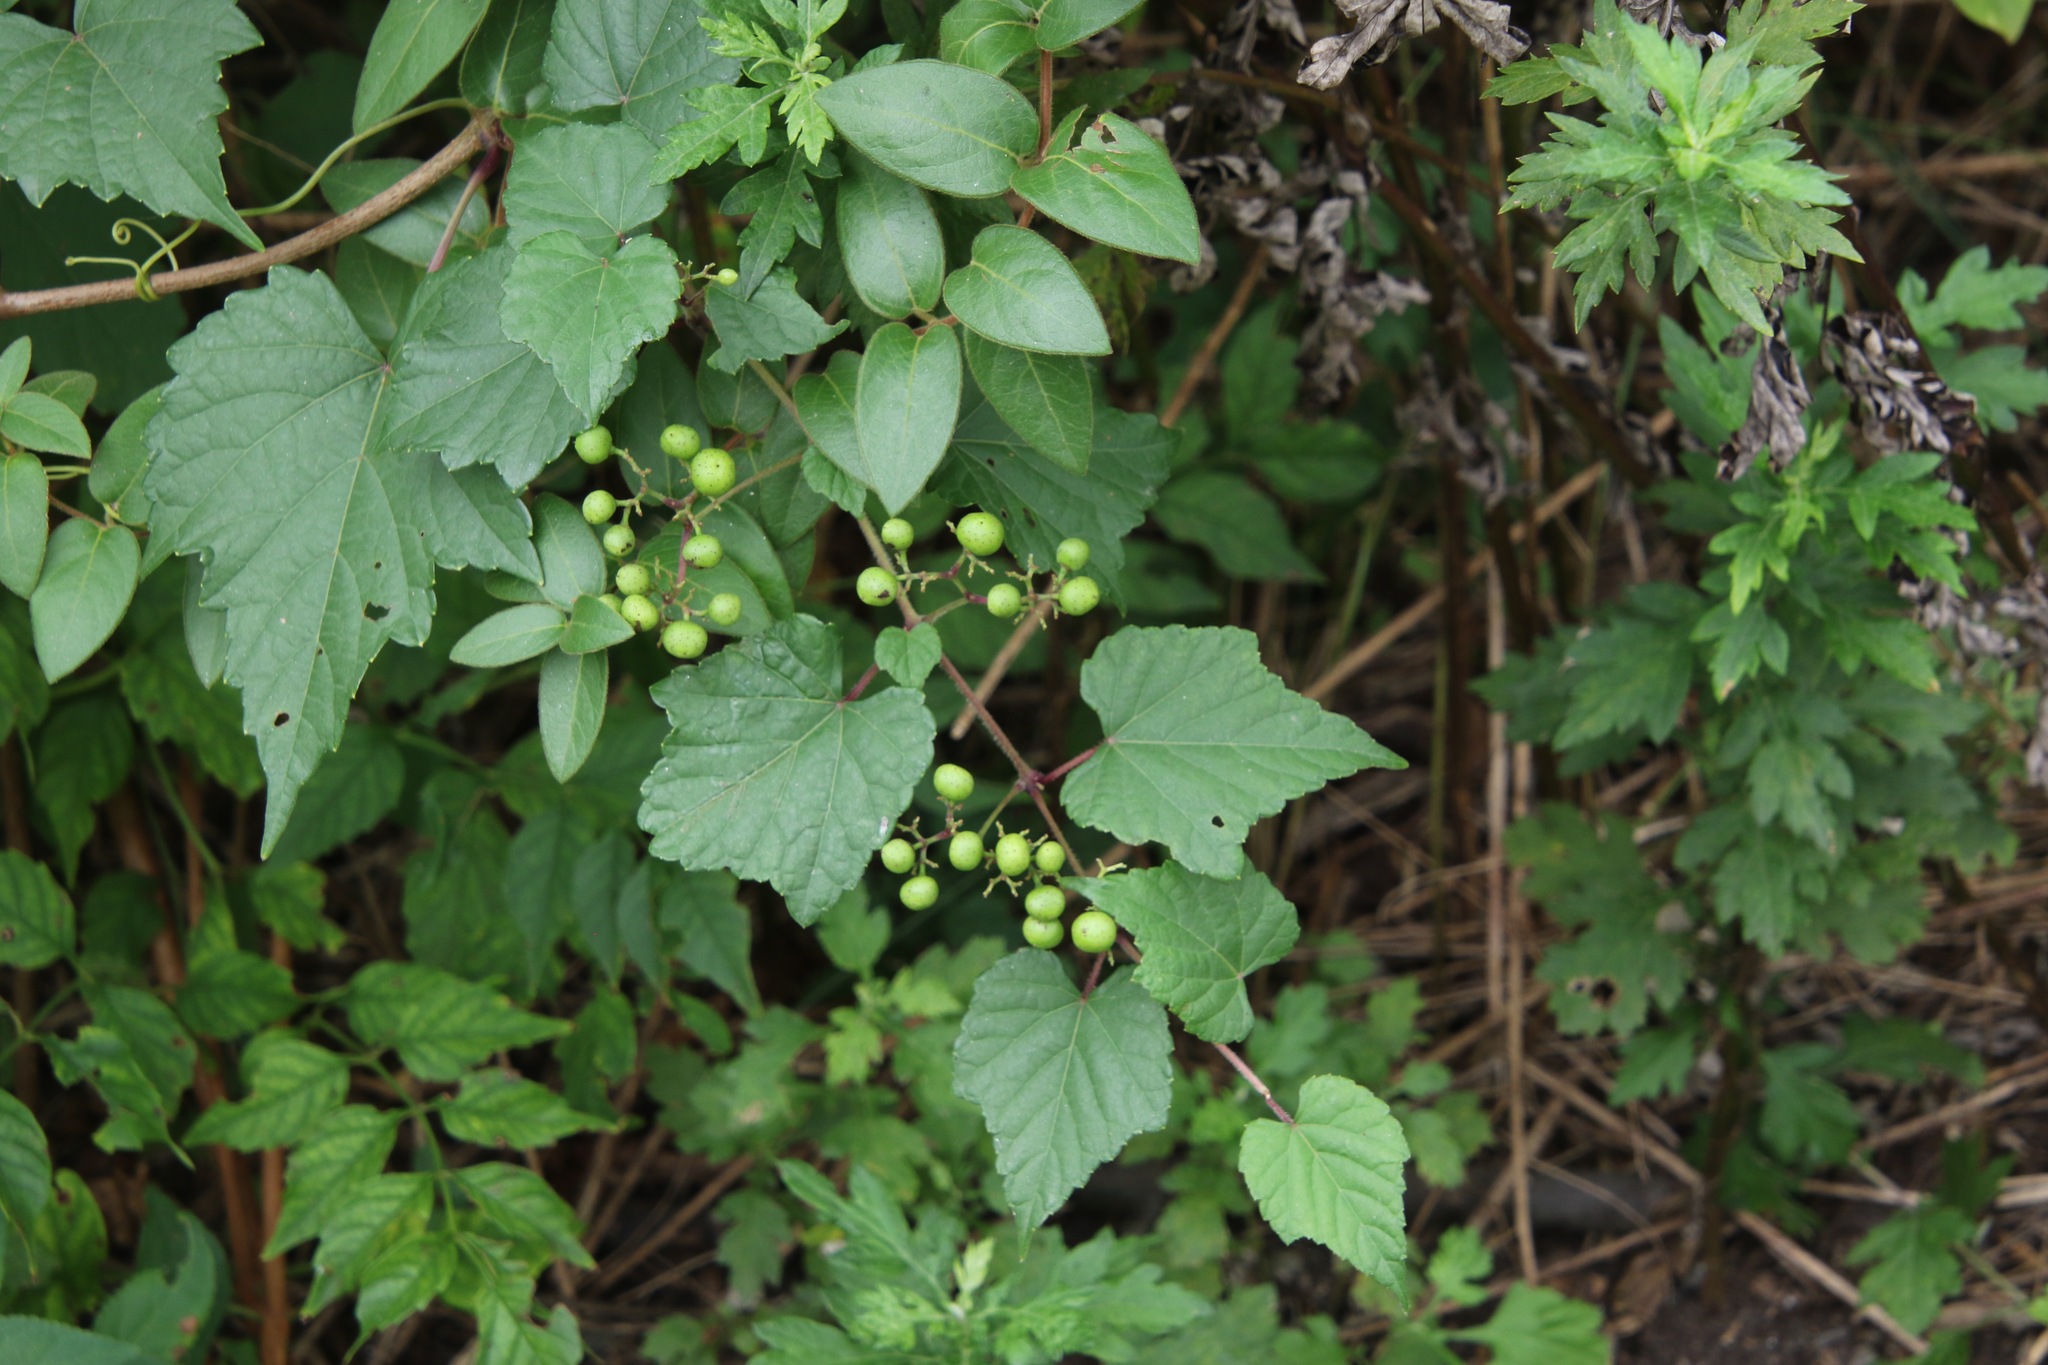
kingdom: Plantae
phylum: Tracheophyta
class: Magnoliopsida
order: Vitales
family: Vitaceae
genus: Ampelopsis
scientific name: Ampelopsis glandulosa
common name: Amur peppervine
